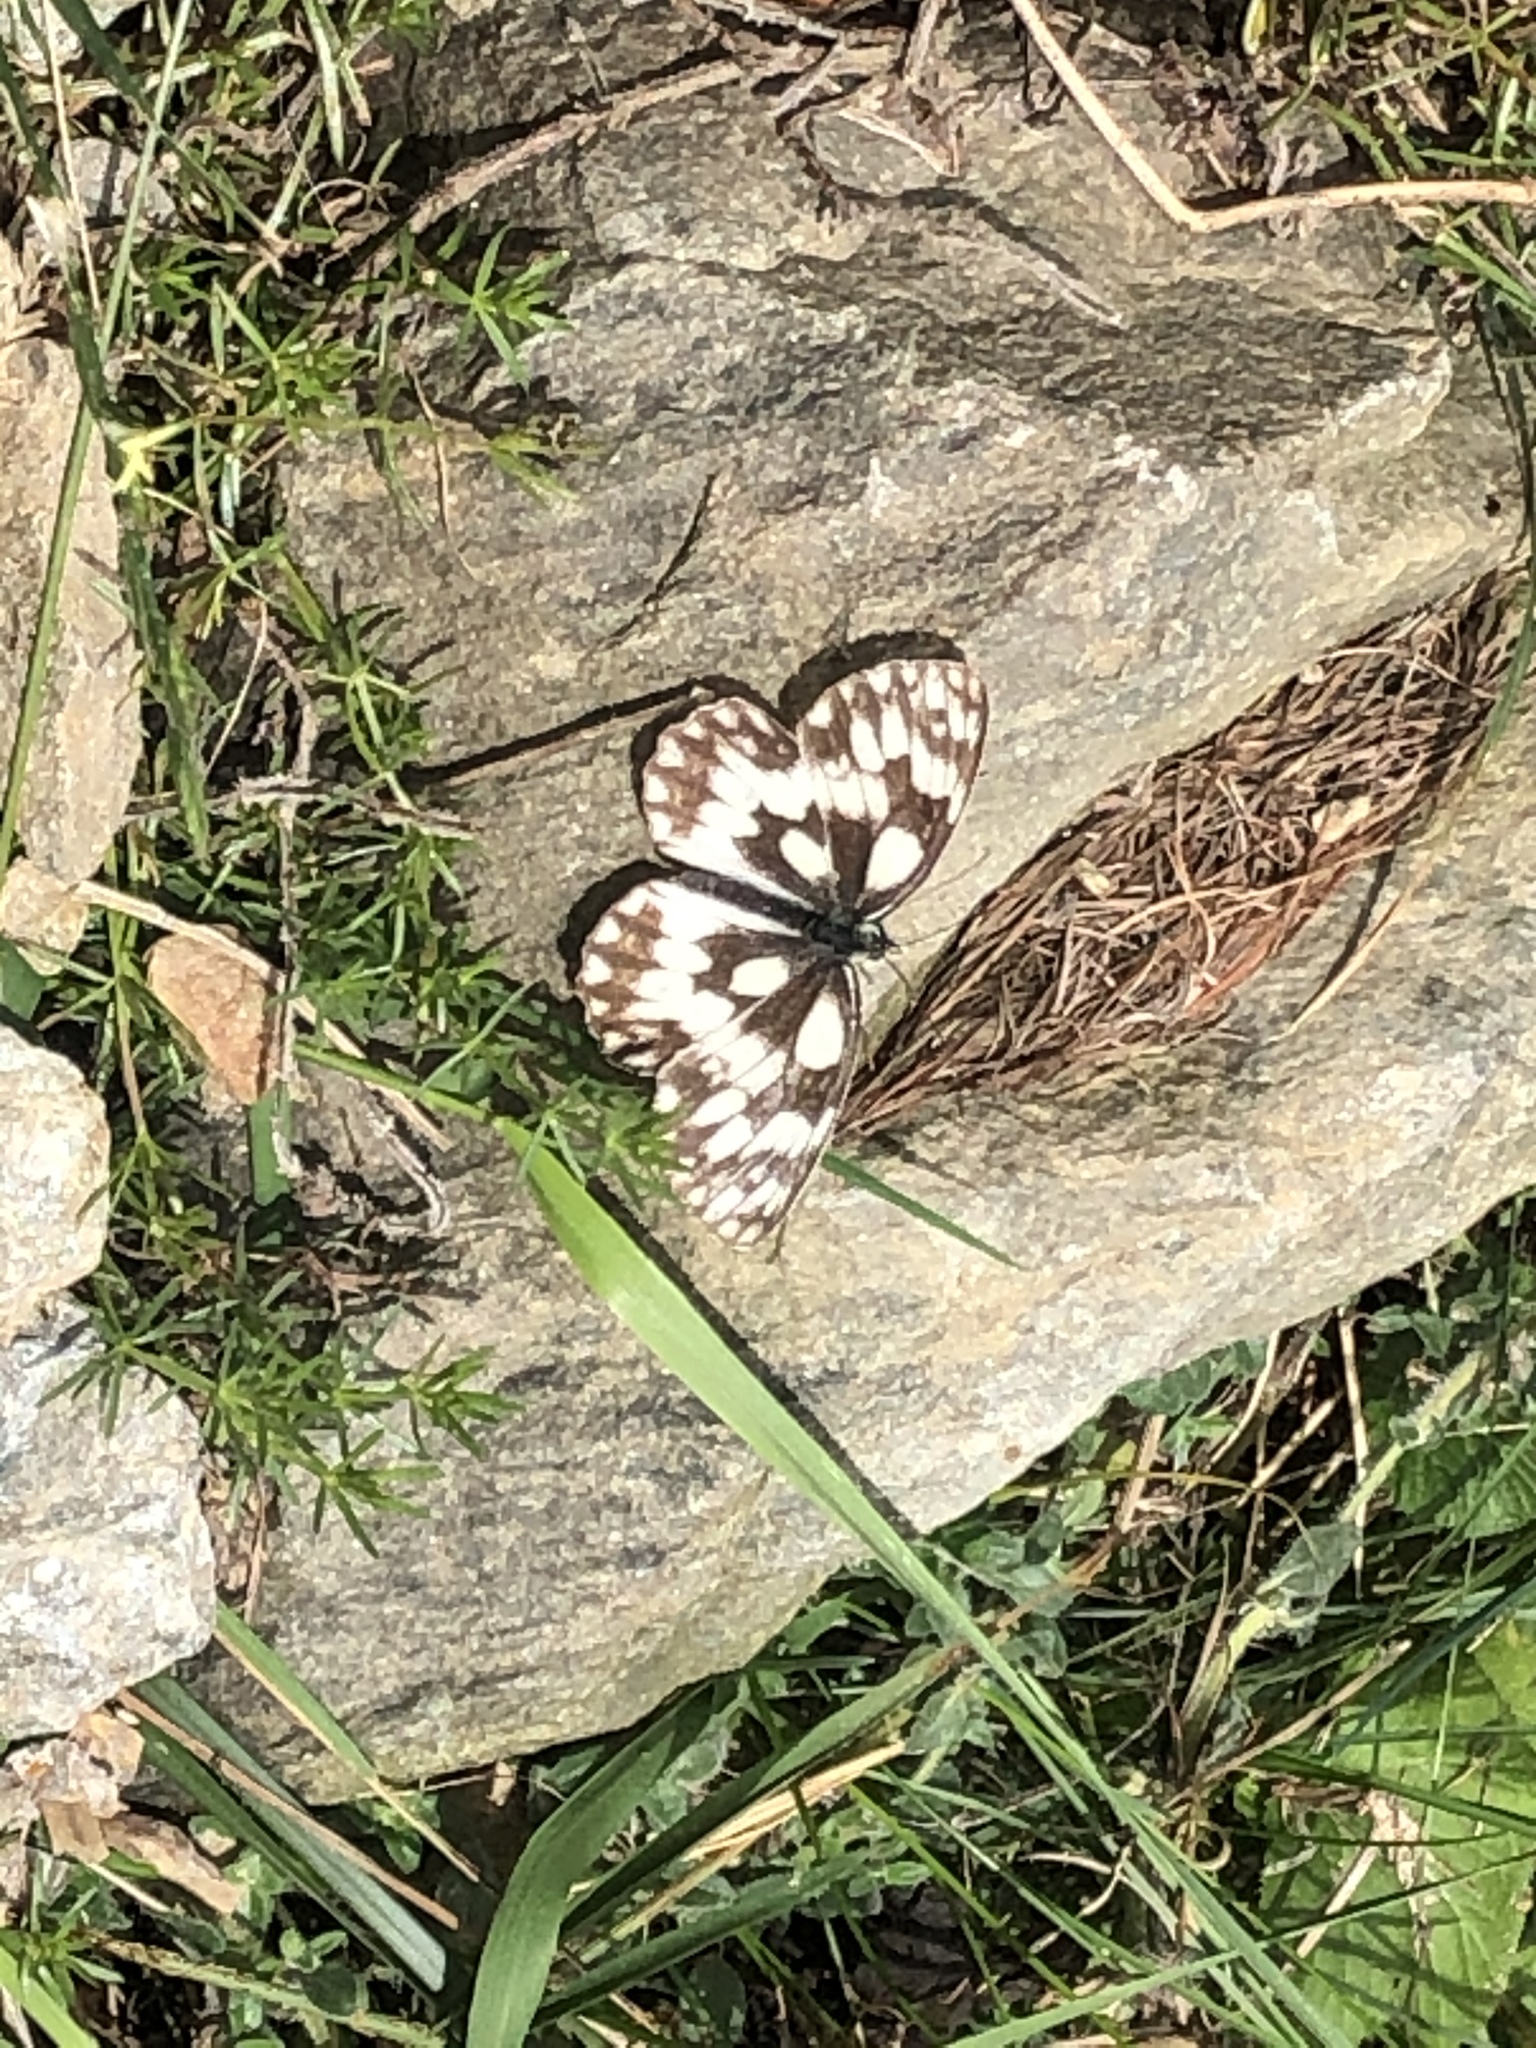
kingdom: Animalia
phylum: Arthropoda
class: Insecta
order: Lepidoptera
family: Nymphalidae
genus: Melanargia
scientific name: Melanargia galathea
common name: Marbled white
